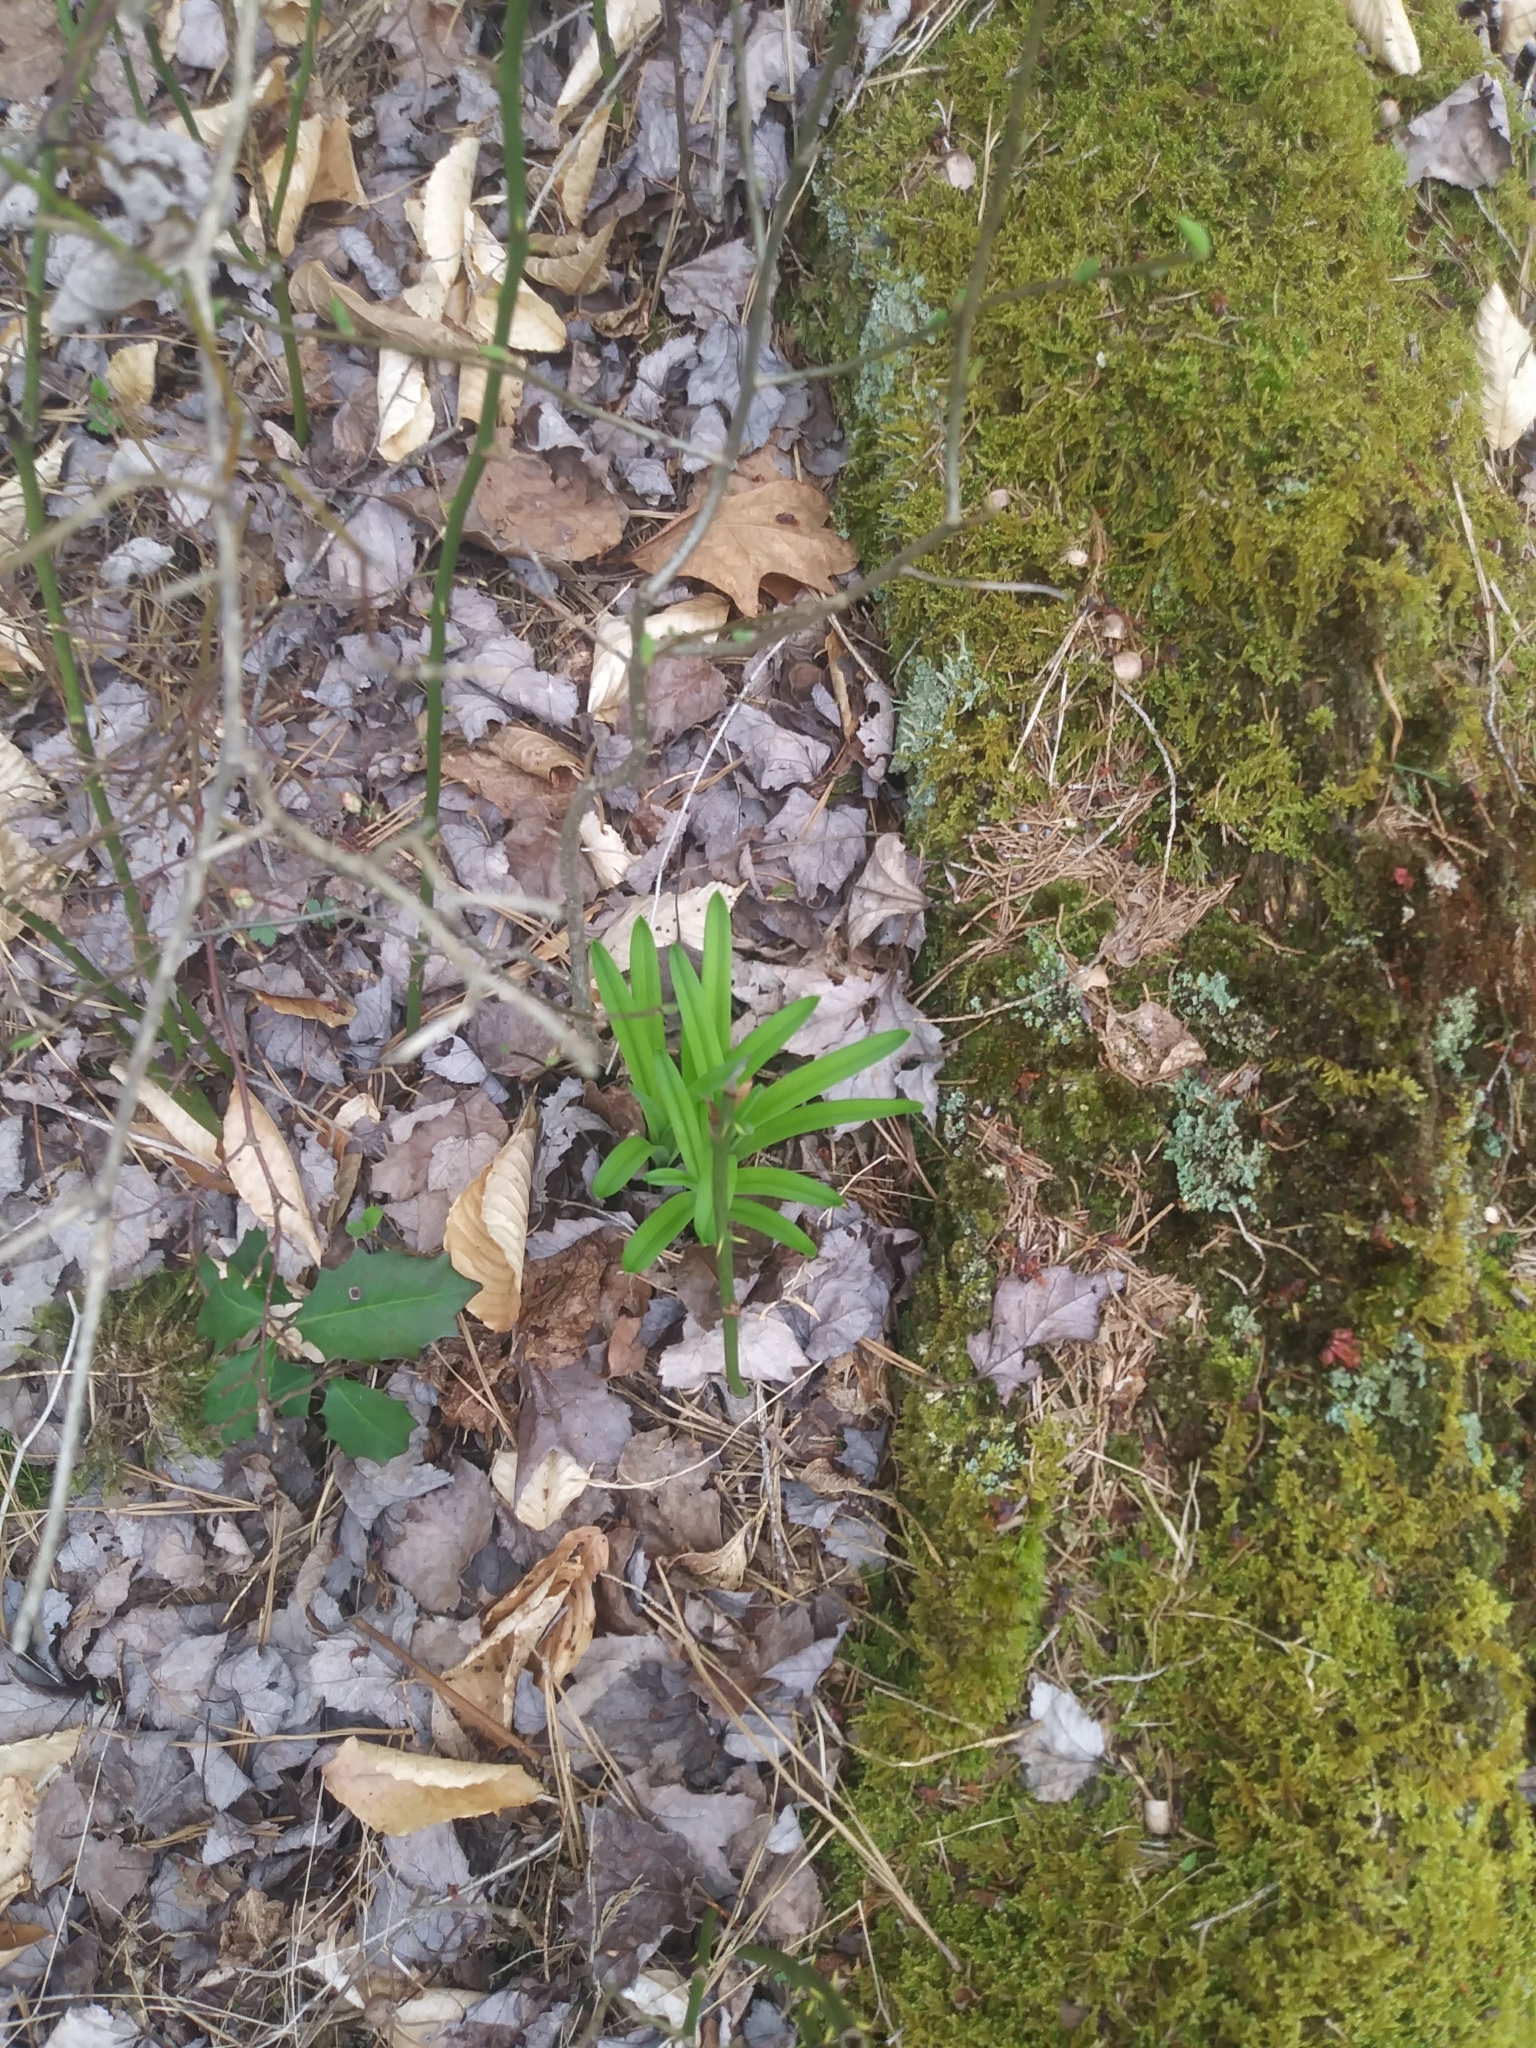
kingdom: Plantae
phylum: Tracheophyta
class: Liliopsida
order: Liliales
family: Melanthiaceae
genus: Amianthium
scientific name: Amianthium muscitoxicum
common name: Fly-poison
